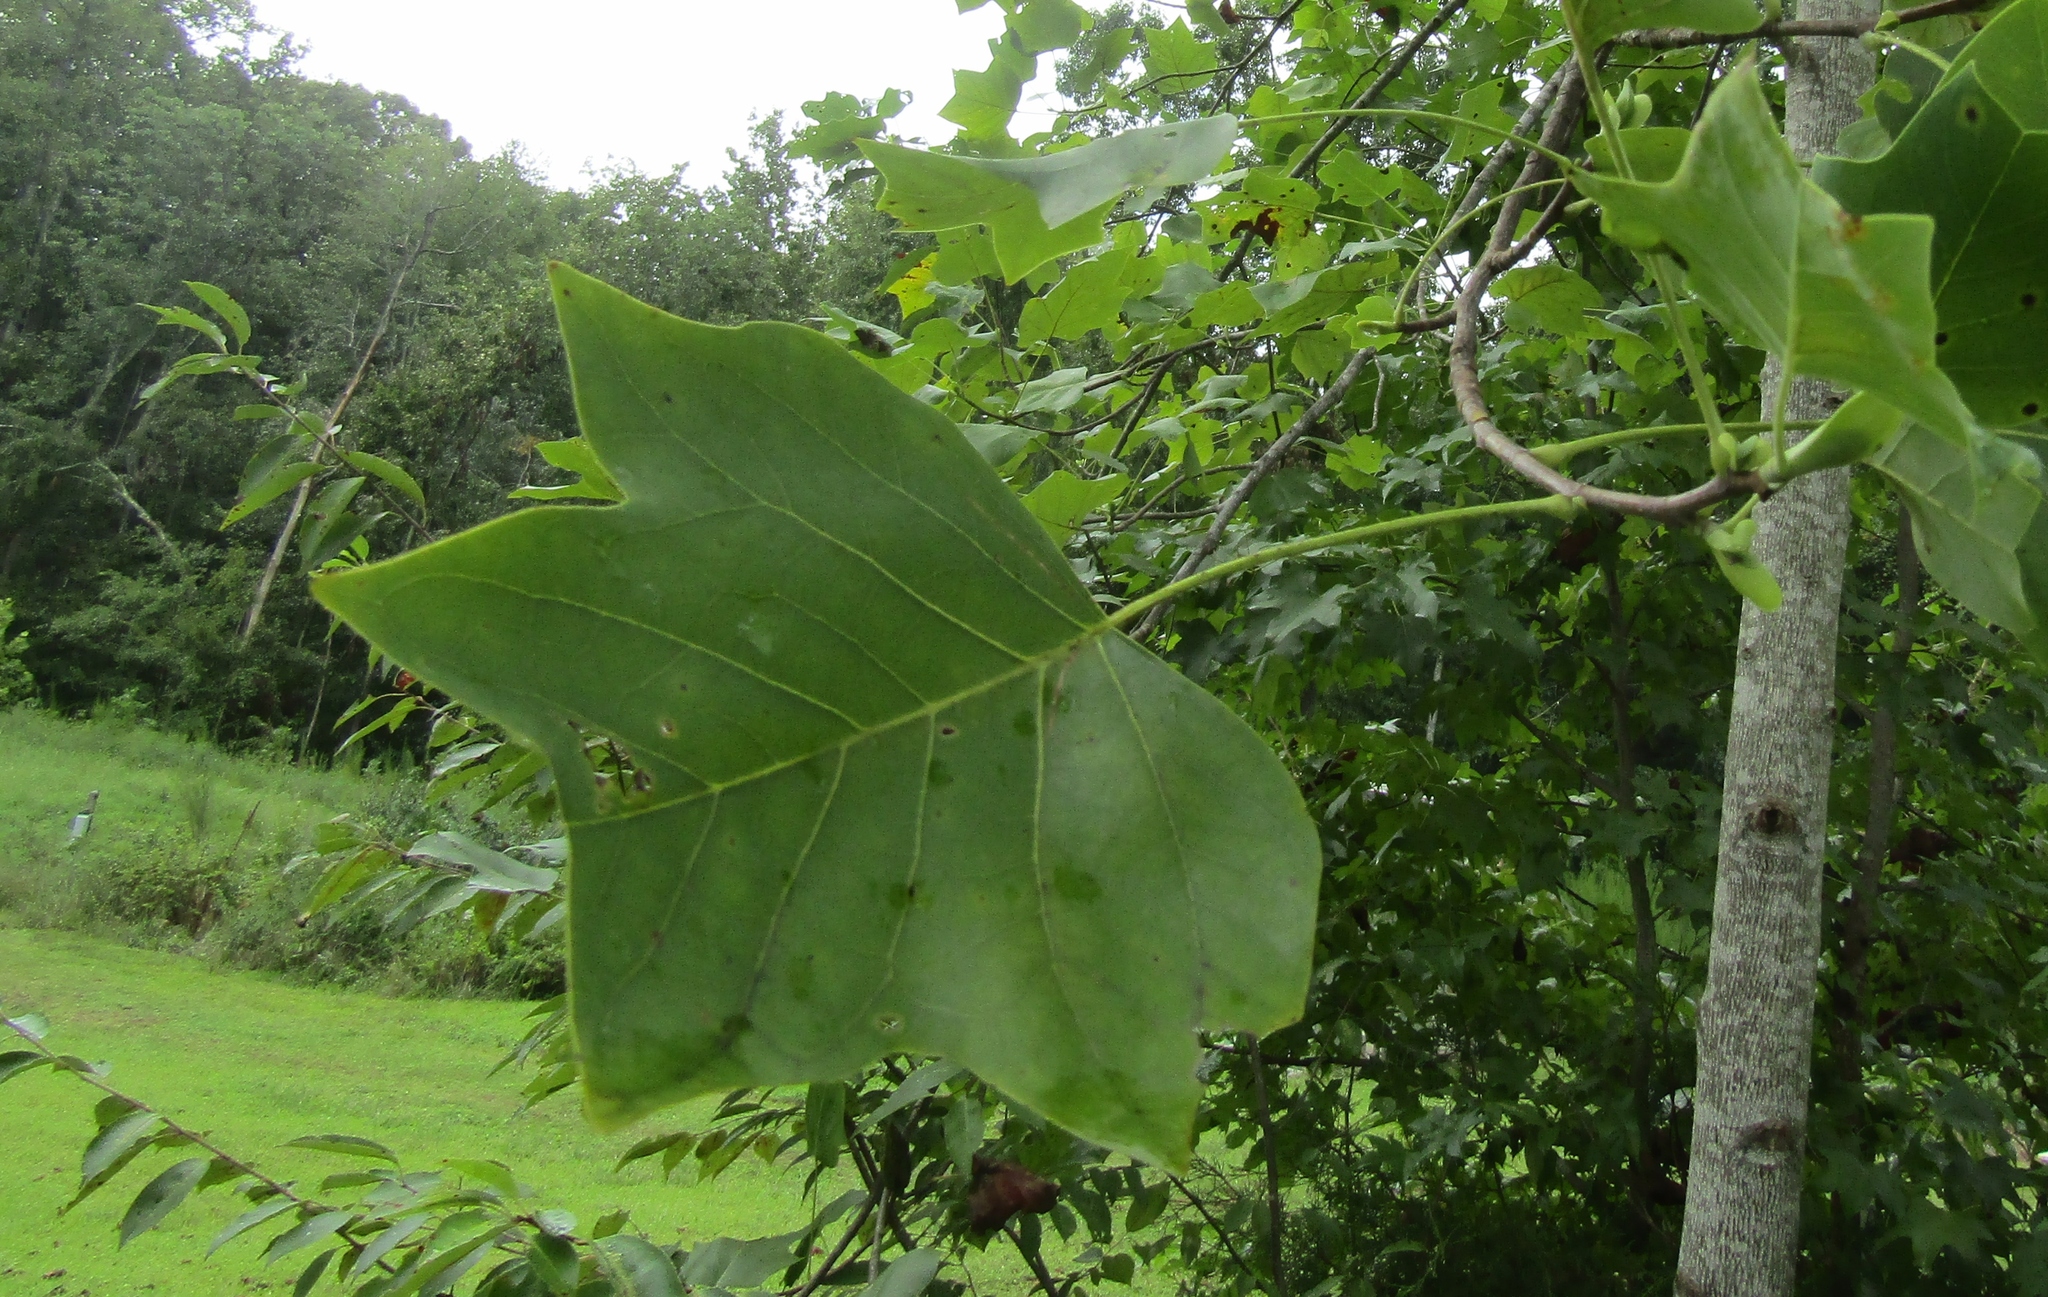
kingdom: Plantae
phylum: Tracheophyta
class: Magnoliopsida
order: Magnoliales
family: Magnoliaceae
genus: Liriodendron
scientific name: Liriodendron tulipifera
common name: Tulip tree
